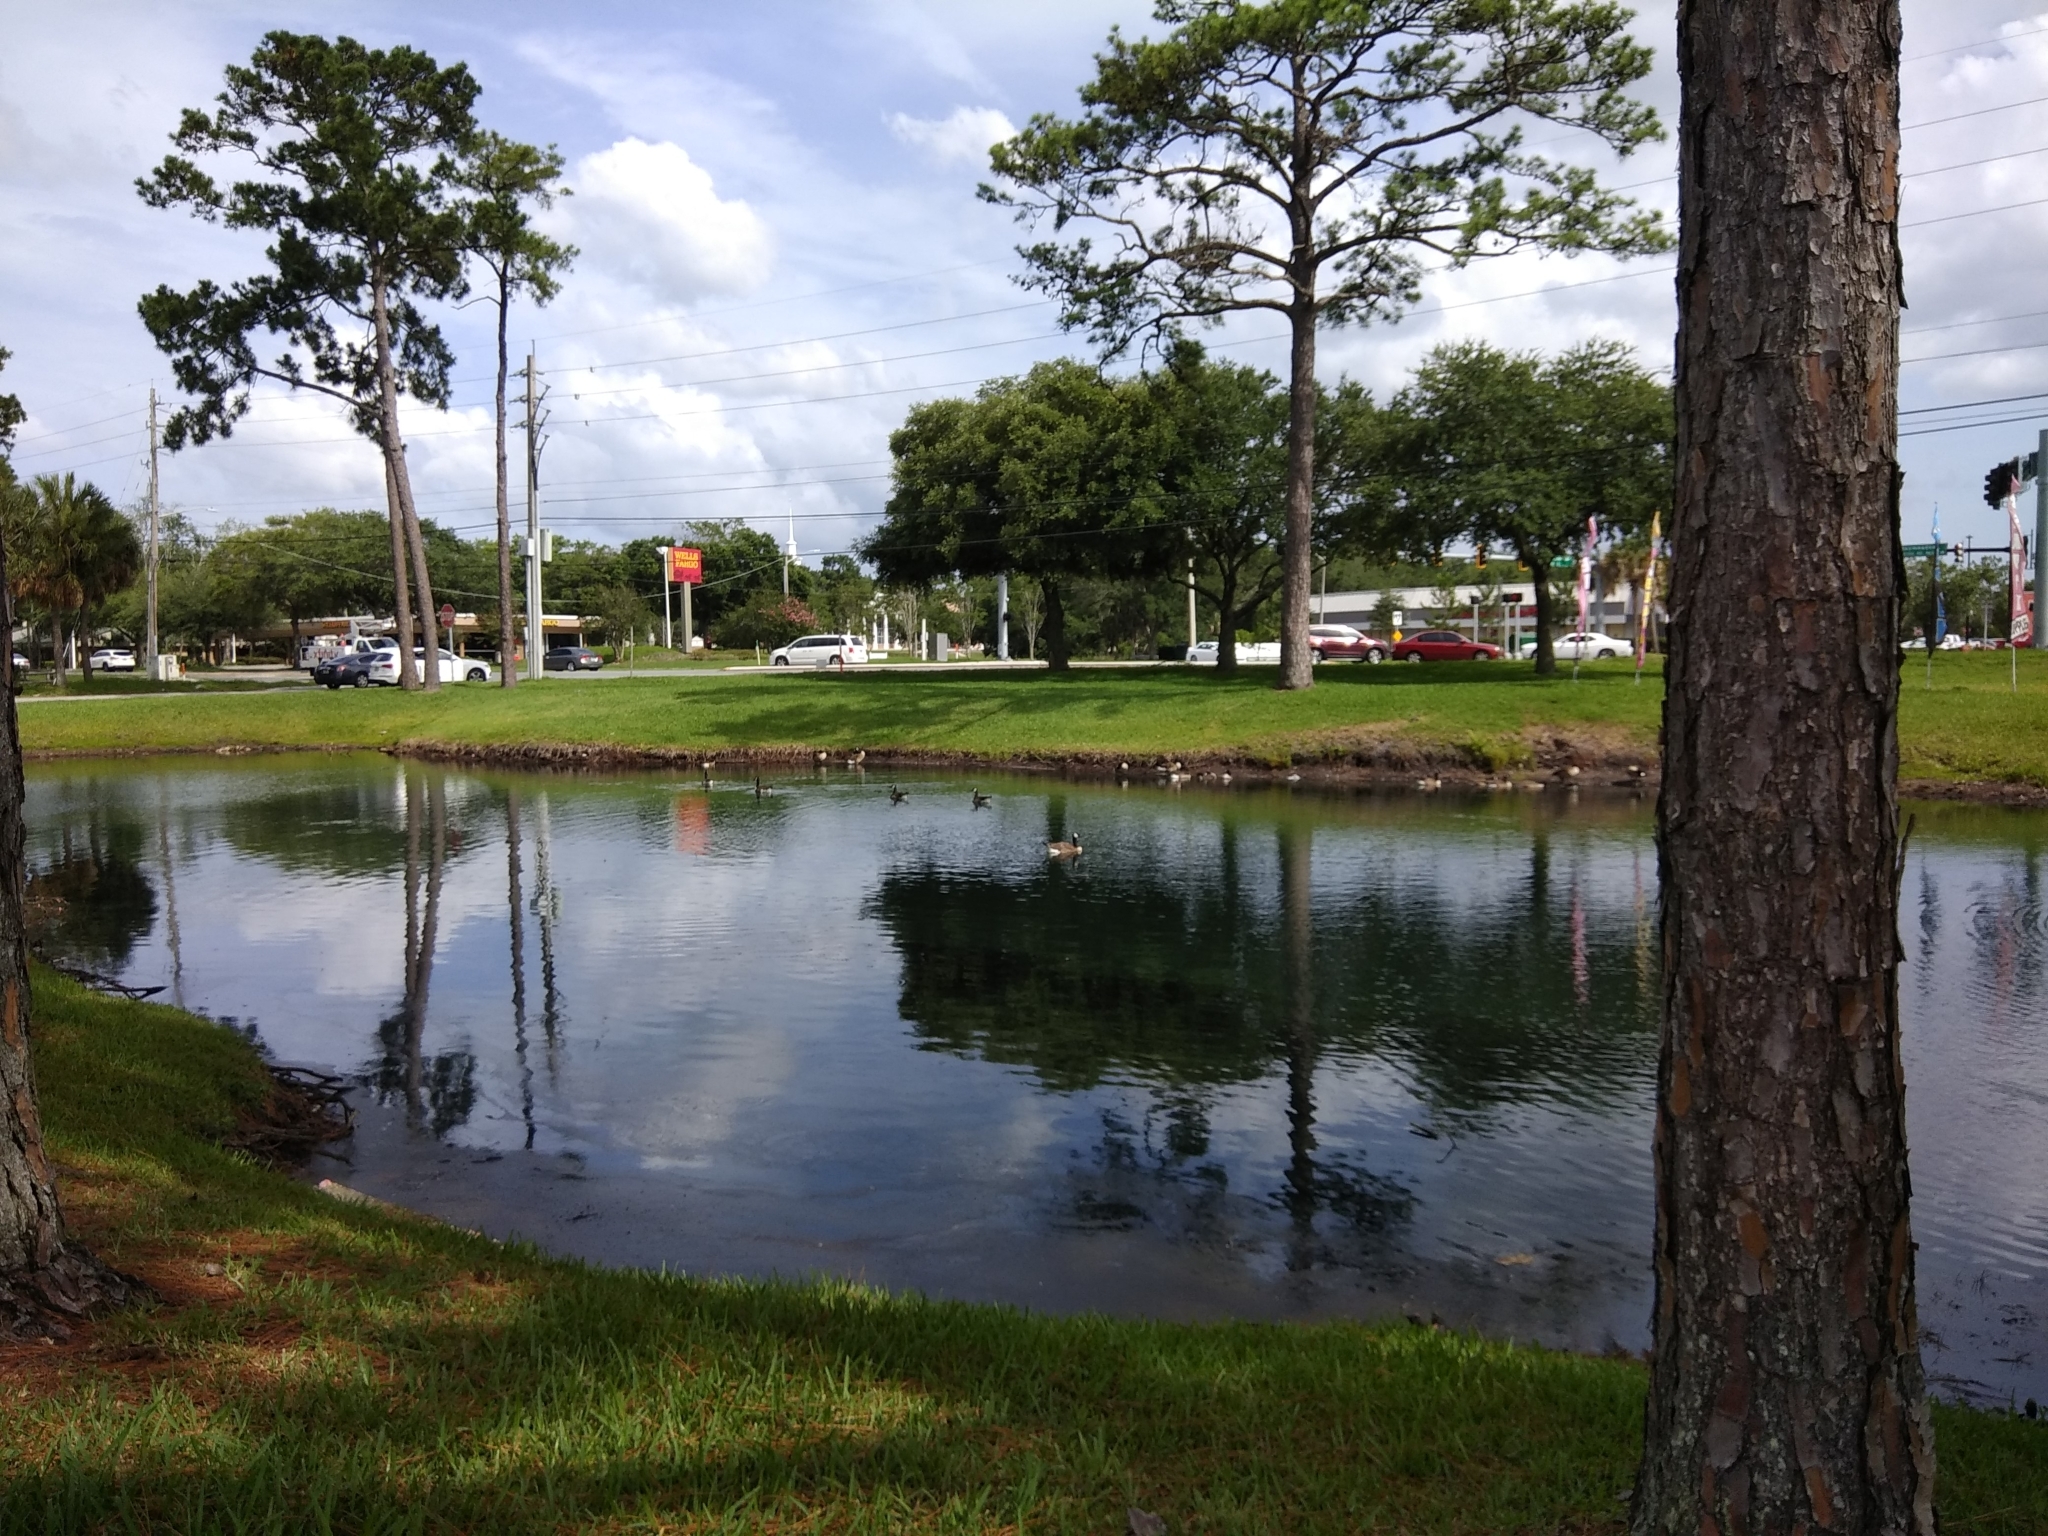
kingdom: Animalia
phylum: Chordata
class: Aves
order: Anseriformes
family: Anatidae
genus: Branta
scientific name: Branta canadensis
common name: Canada goose
